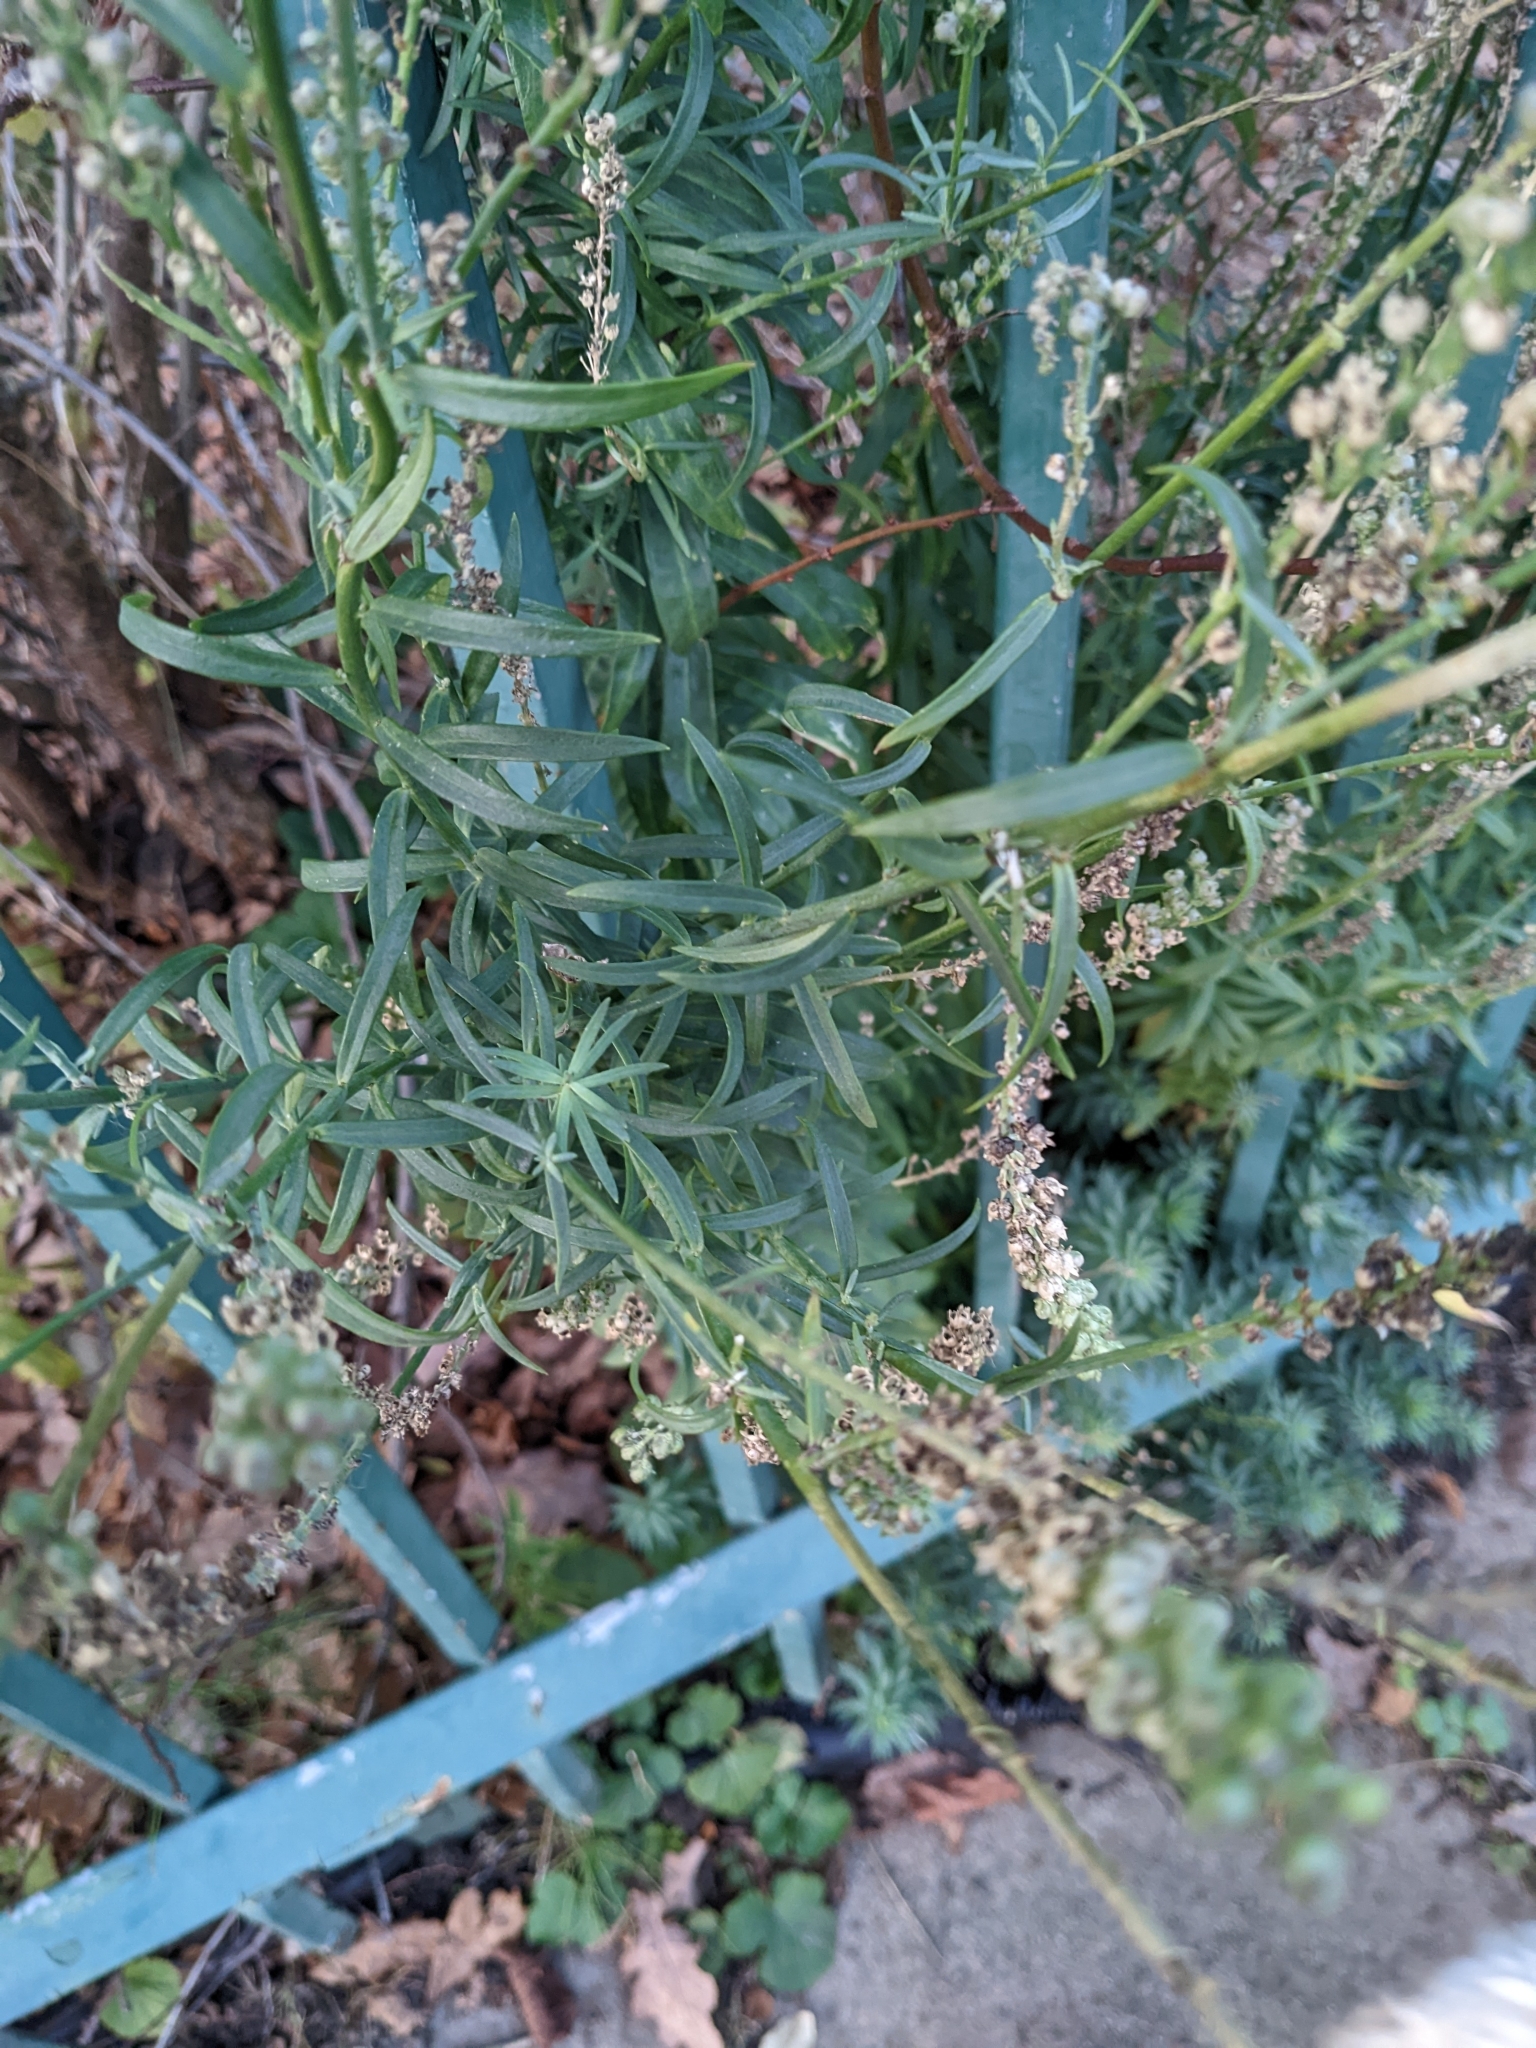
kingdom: Plantae
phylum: Tracheophyta
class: Magnoliopsida
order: Lamiales
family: Plantaginaceae
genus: Linaria
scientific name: Linaria purpurea
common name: Purple toadflax
